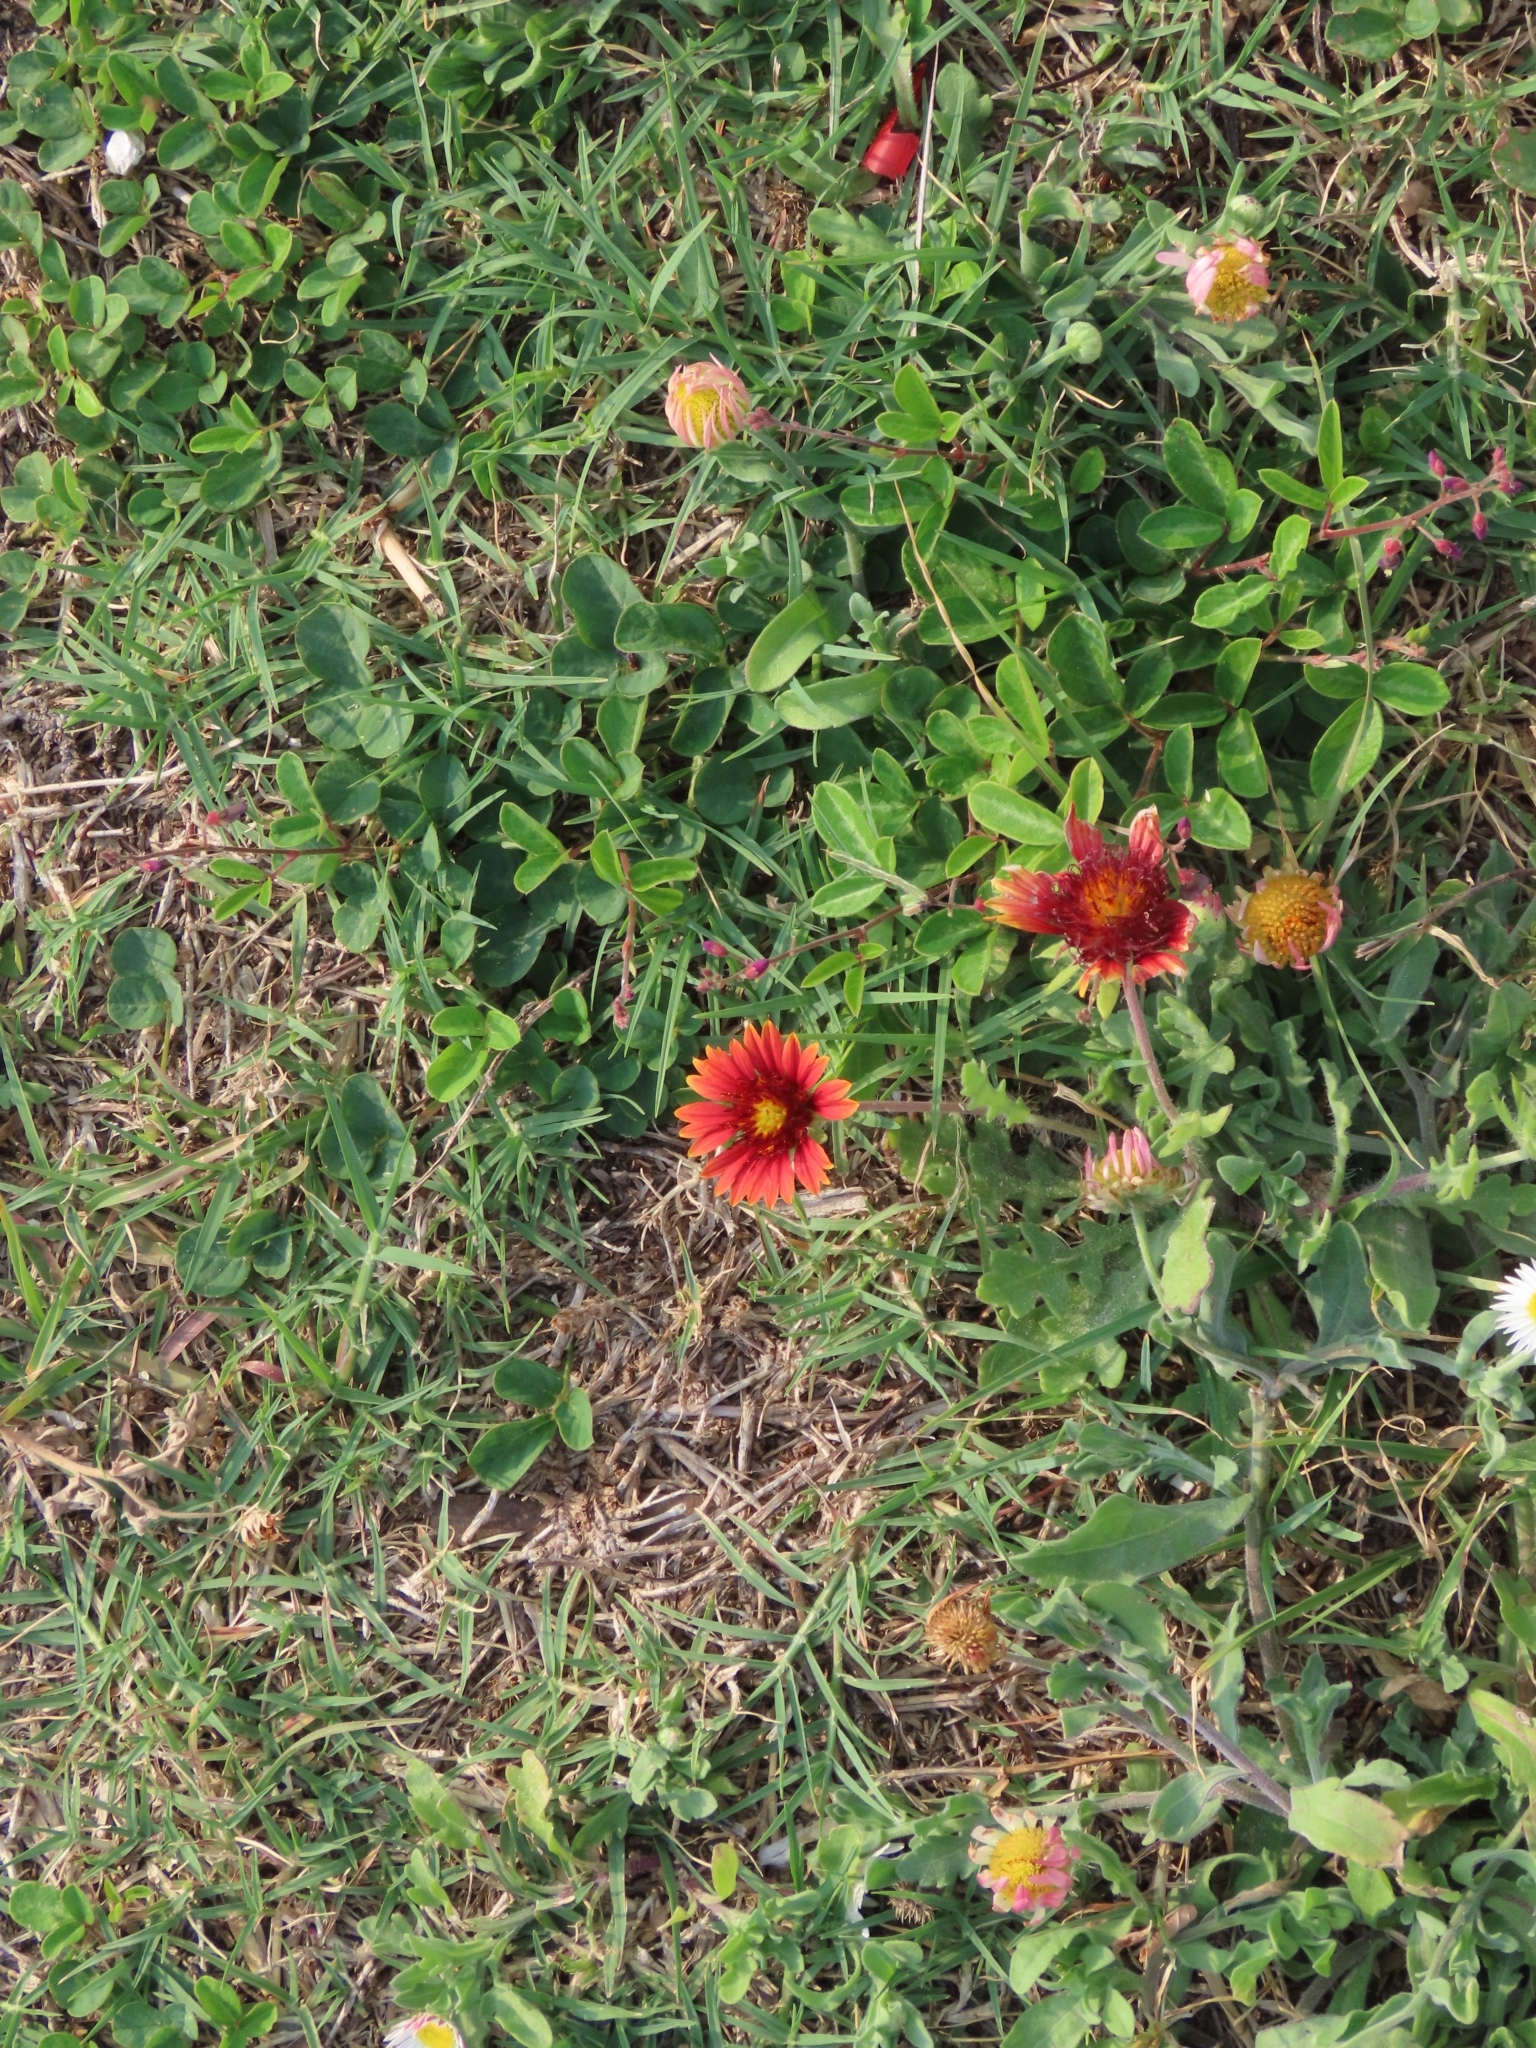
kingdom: Plantae
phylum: Tracheophyta
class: Magnoliopsida
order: Asterales
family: Asteraceae
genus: Gaillardia
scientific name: Gaillardia pulchella
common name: Firewheel
